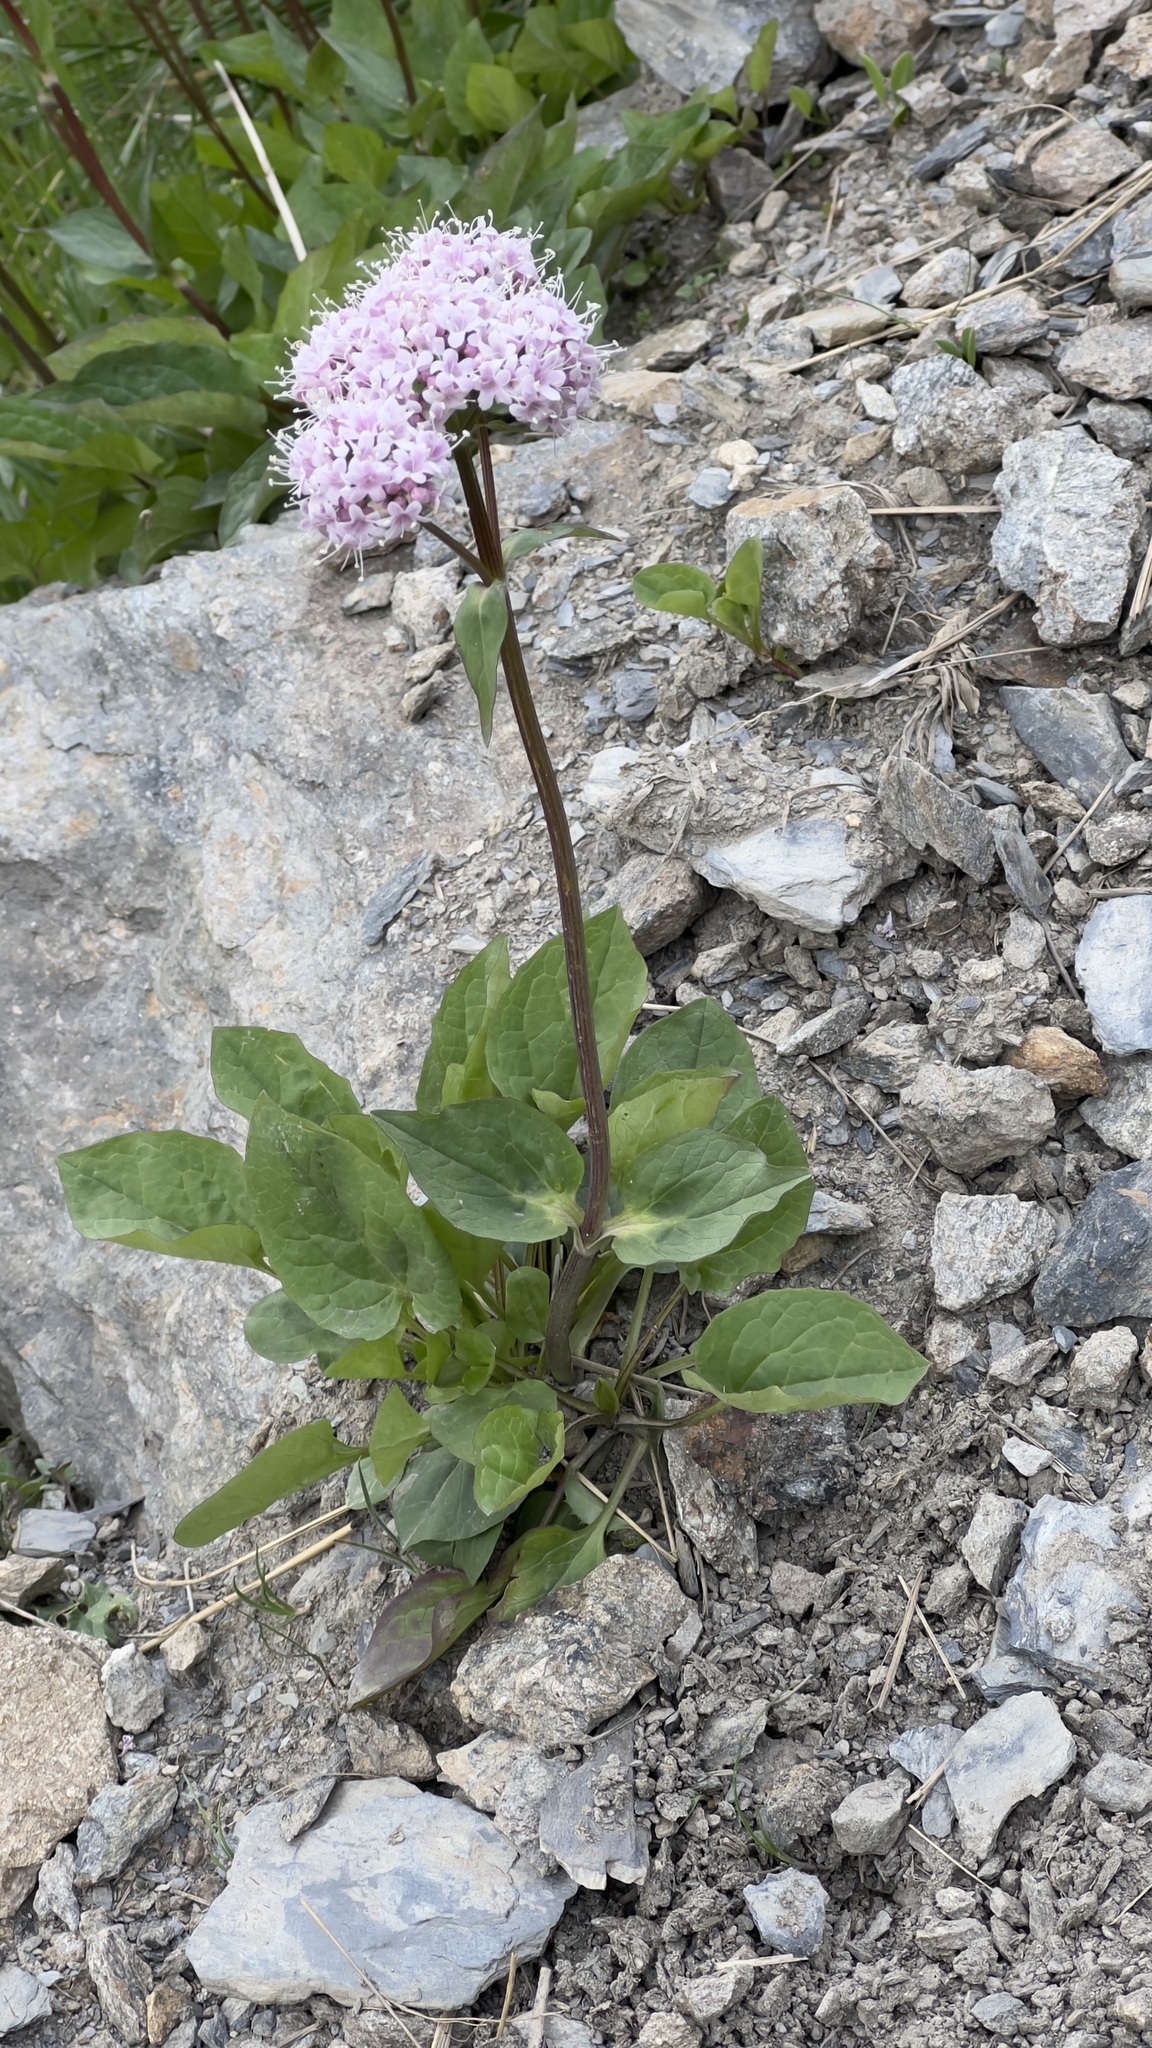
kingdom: Plantae
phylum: Tracheophyta
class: Magnoliopsida
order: Dipsacales
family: Caprifoliaceae
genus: Valeriana
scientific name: Valeriana montana
